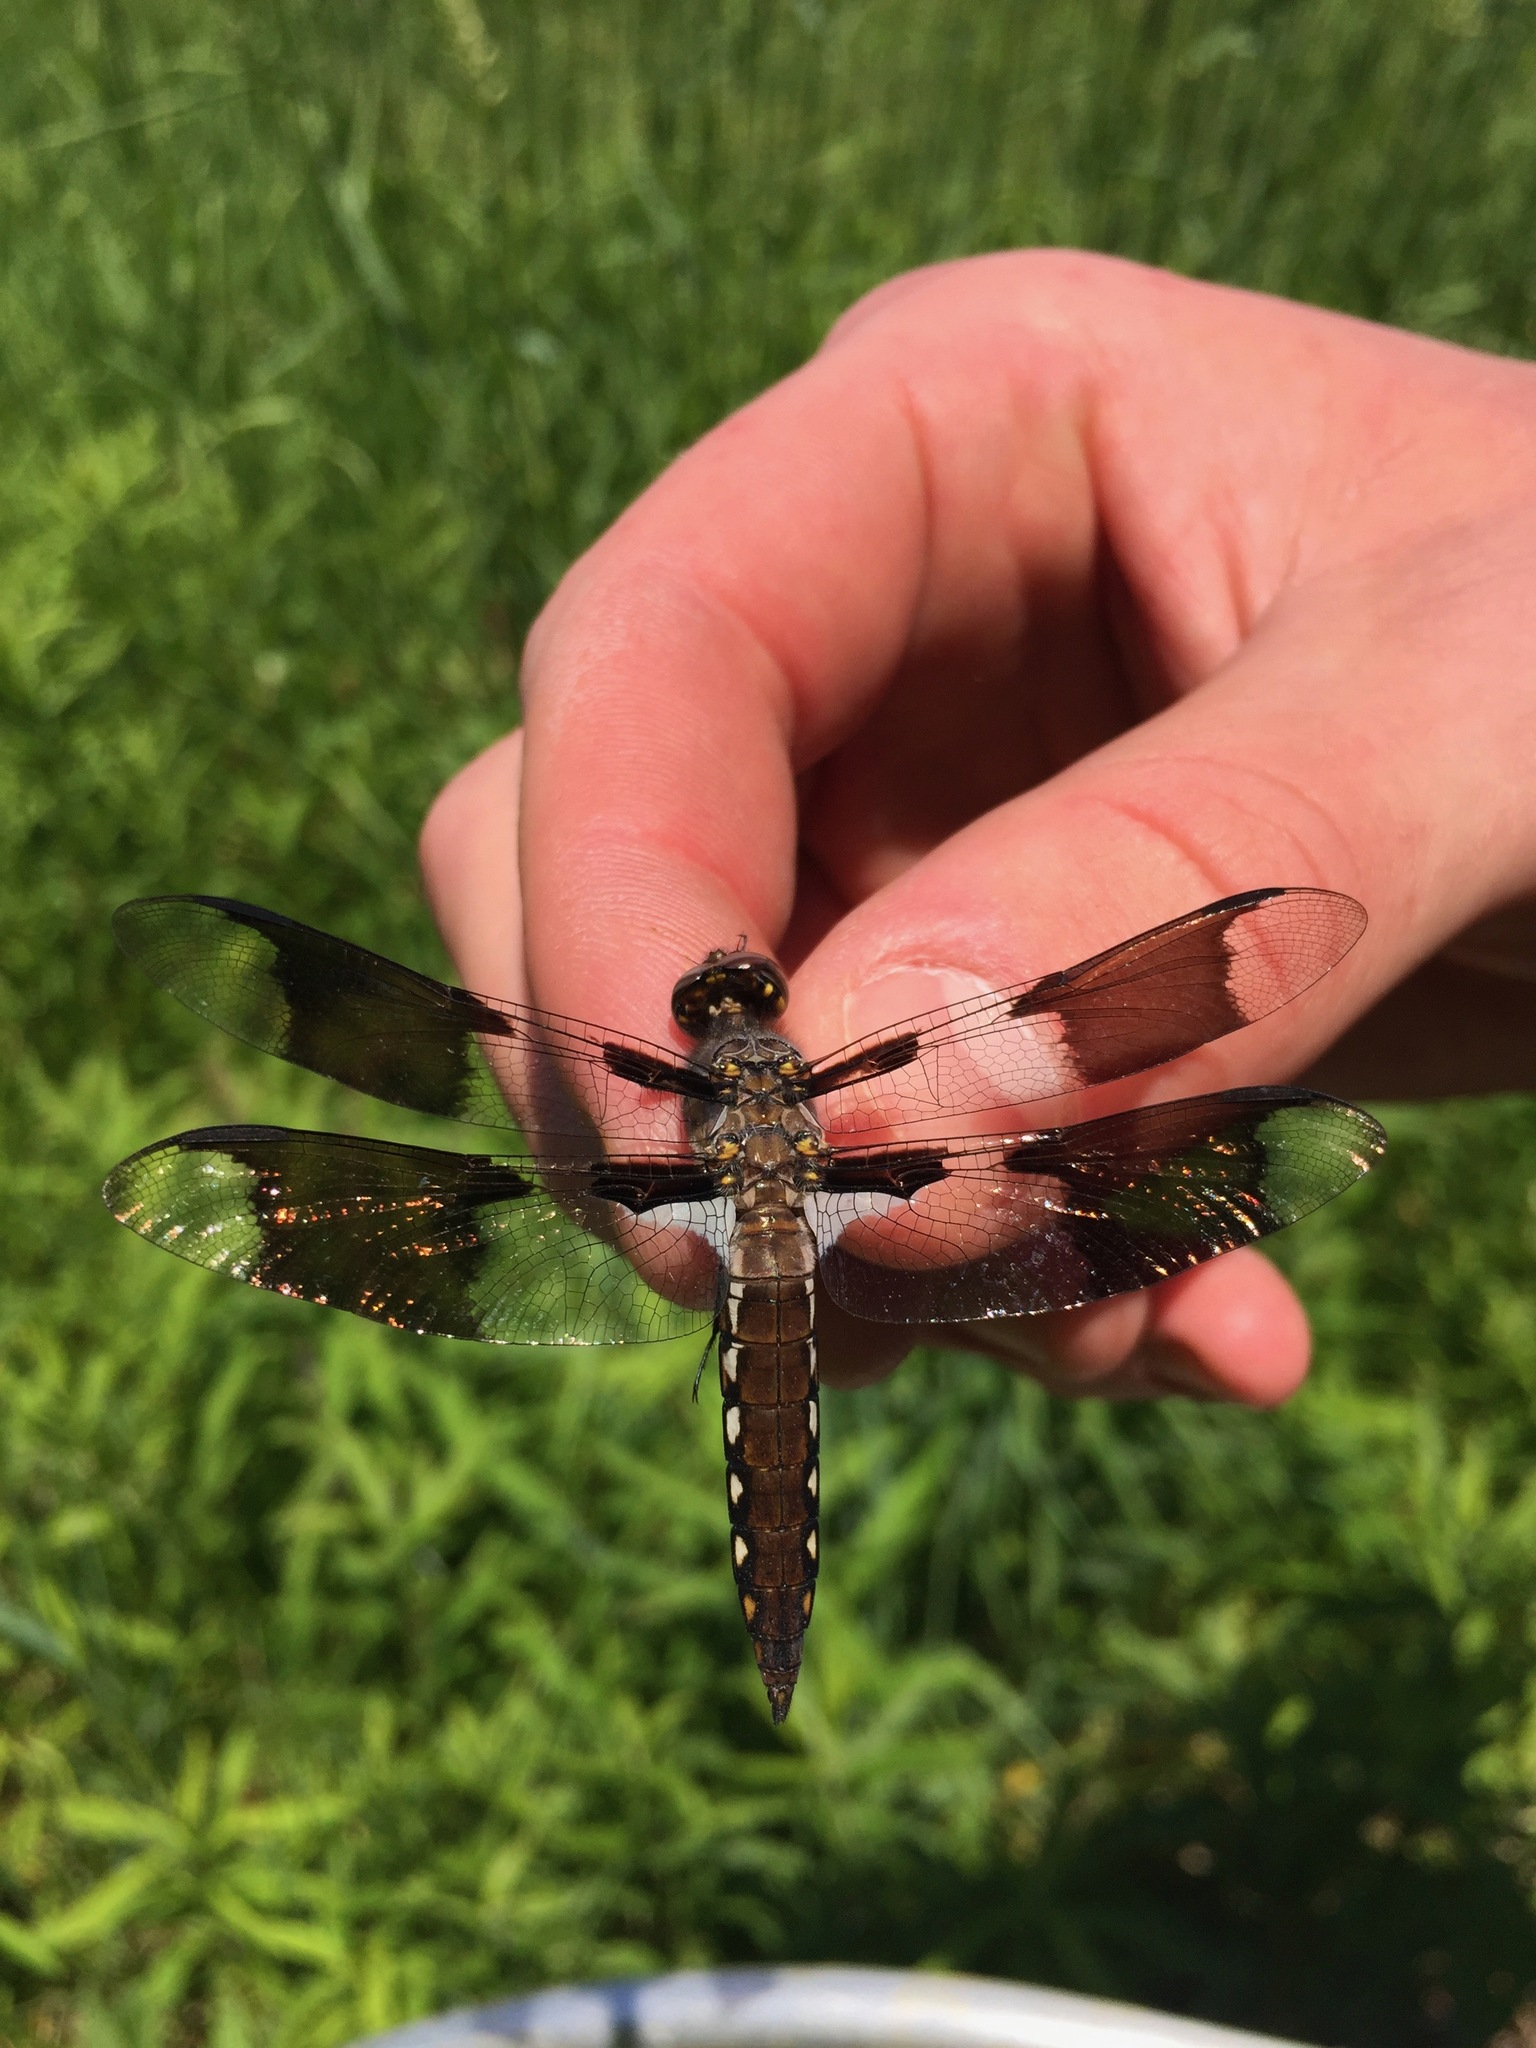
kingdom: Animalia
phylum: Arthropoda
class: Insecta
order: Odonata
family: Libellulidae
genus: Plathemis
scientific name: Plathemis lydia
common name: Common whitetail
